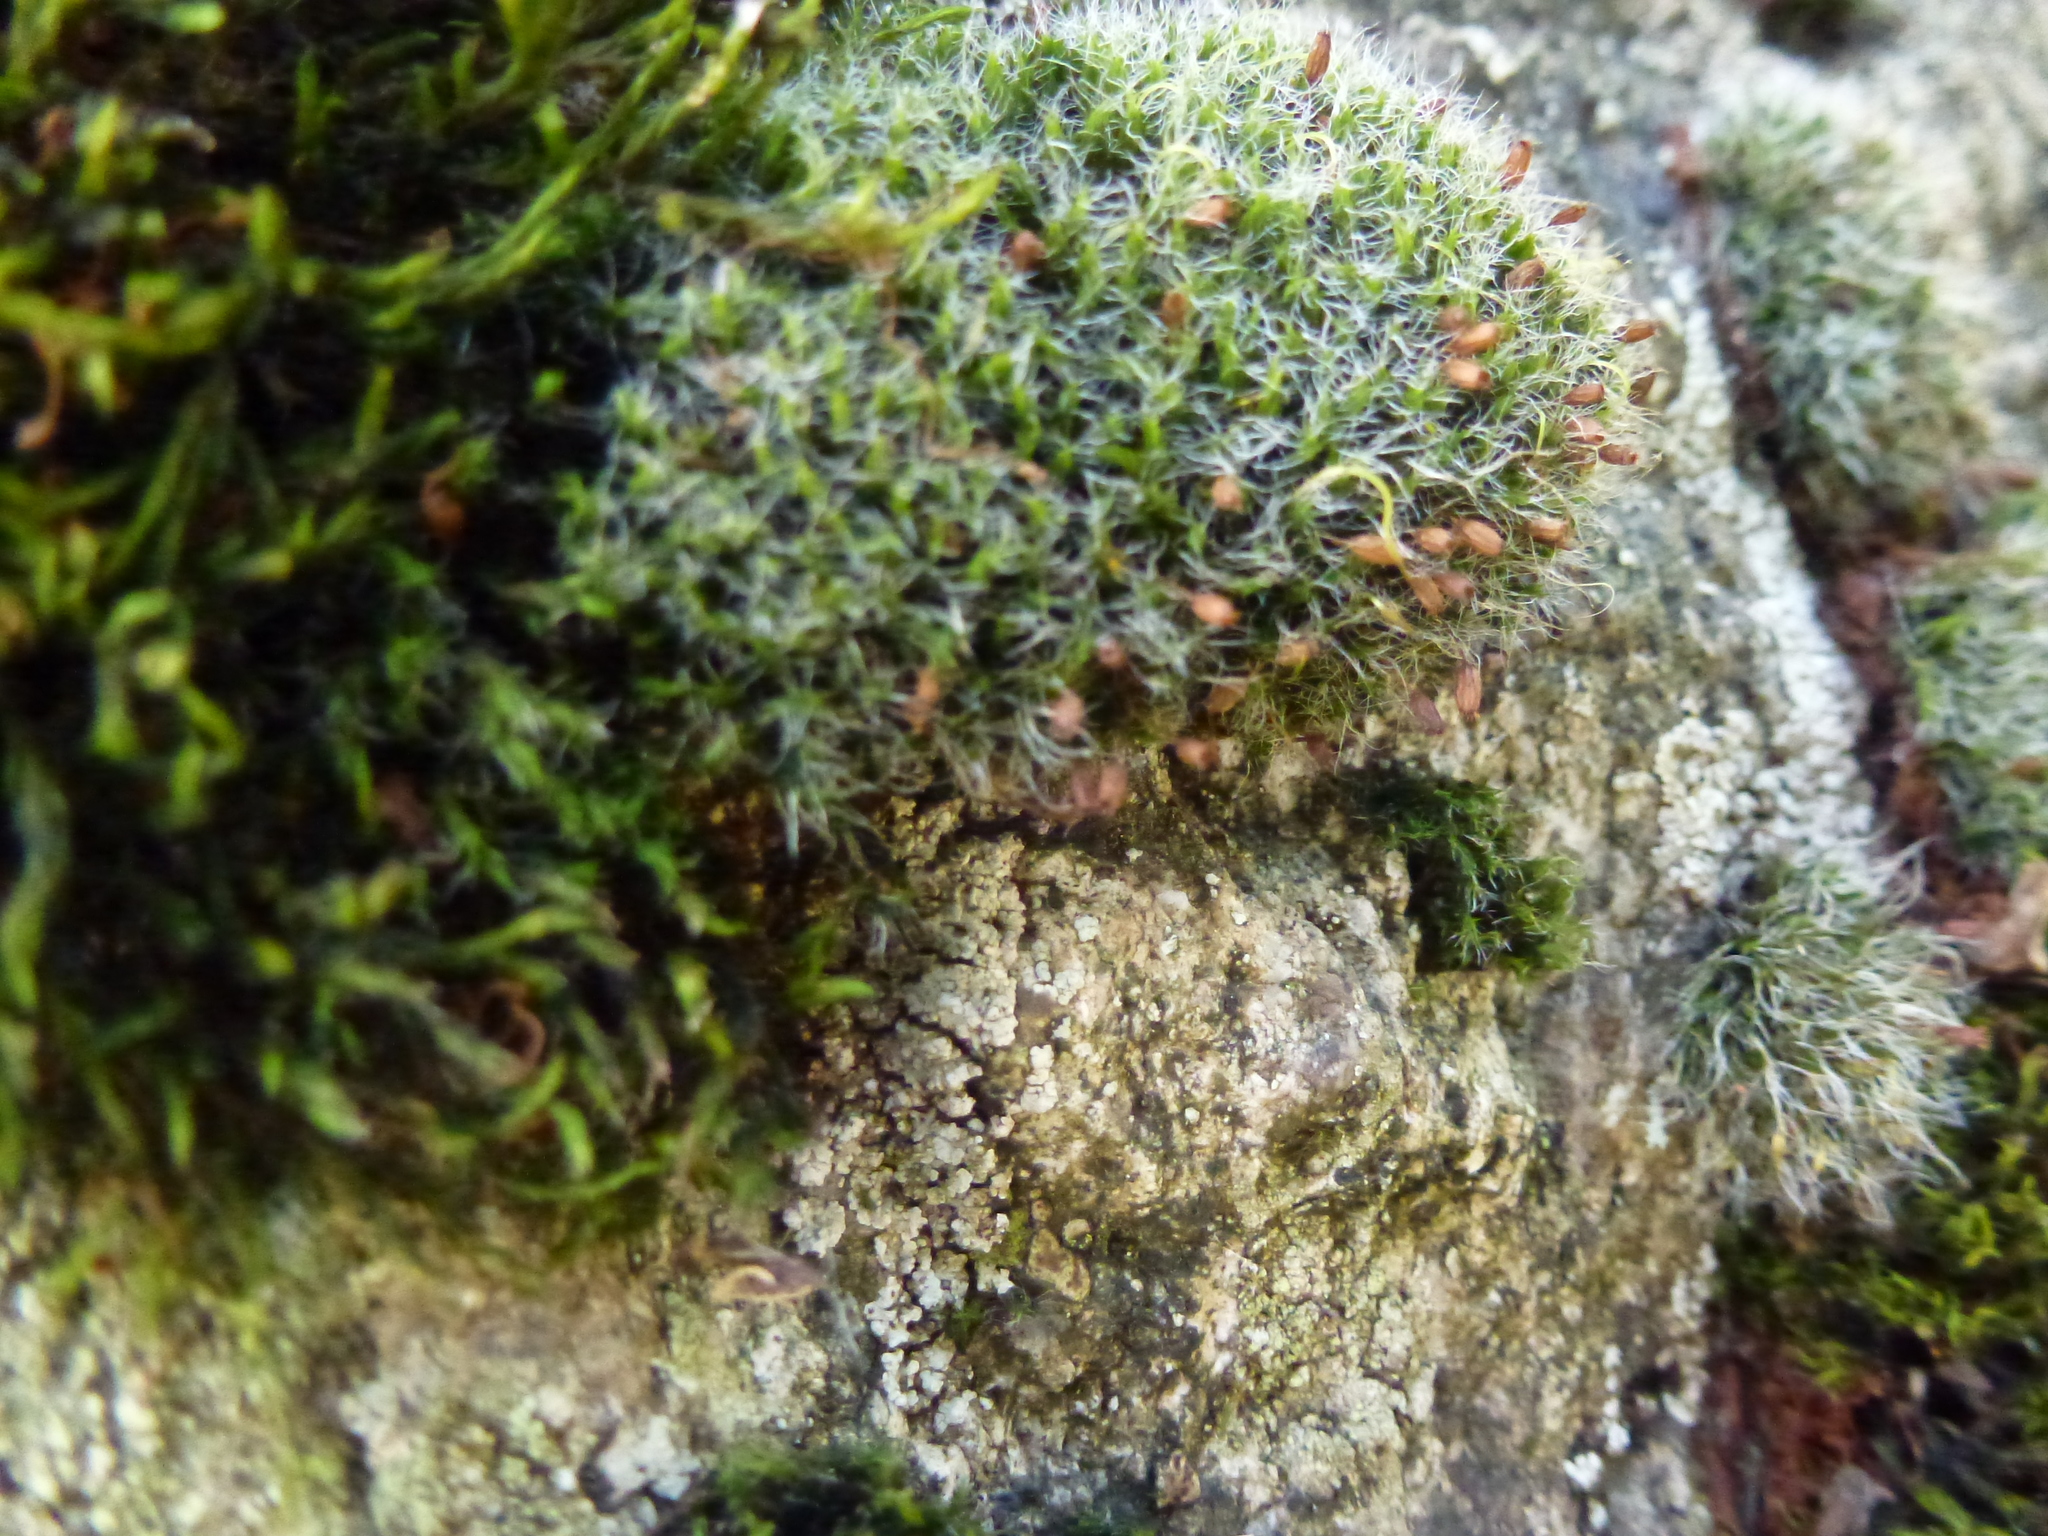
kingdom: Plantae
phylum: Bryophyta
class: Bryopsida
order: Grimmiales
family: Grimmiaceae
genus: Grimmia
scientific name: Grimmia pulvinata
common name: Grey-cushioned grimmia
